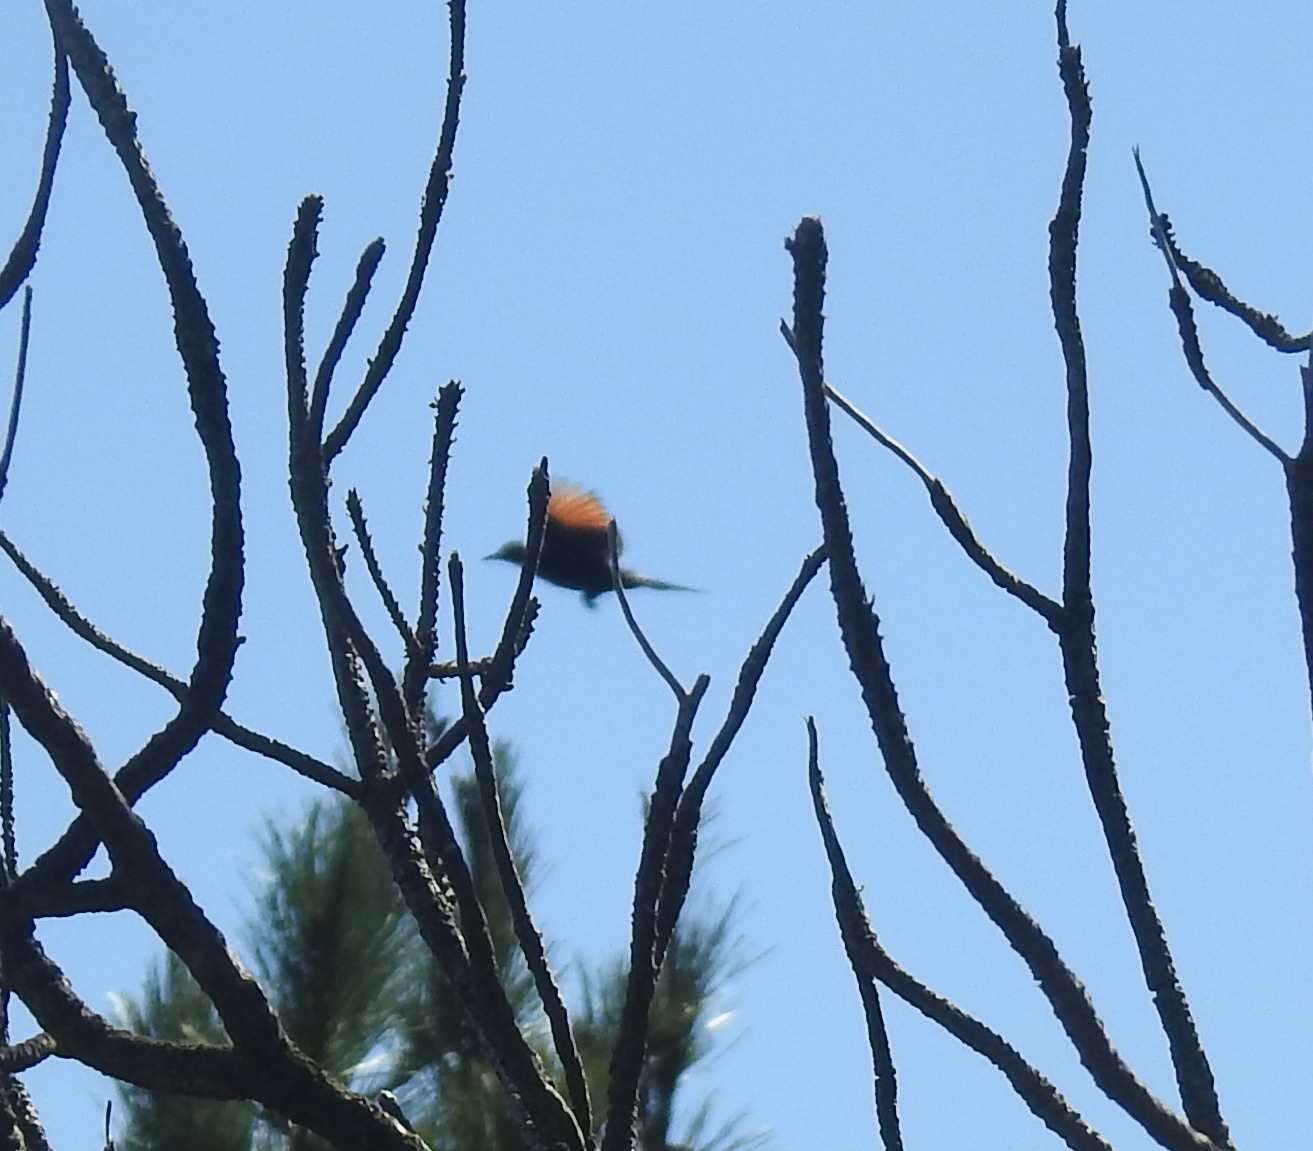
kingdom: Animalia
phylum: Chordata
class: Aves
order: Passeriformes
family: Sturnidae
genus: Onychognathus
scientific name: Onychognathus morio
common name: Red-winged starling
